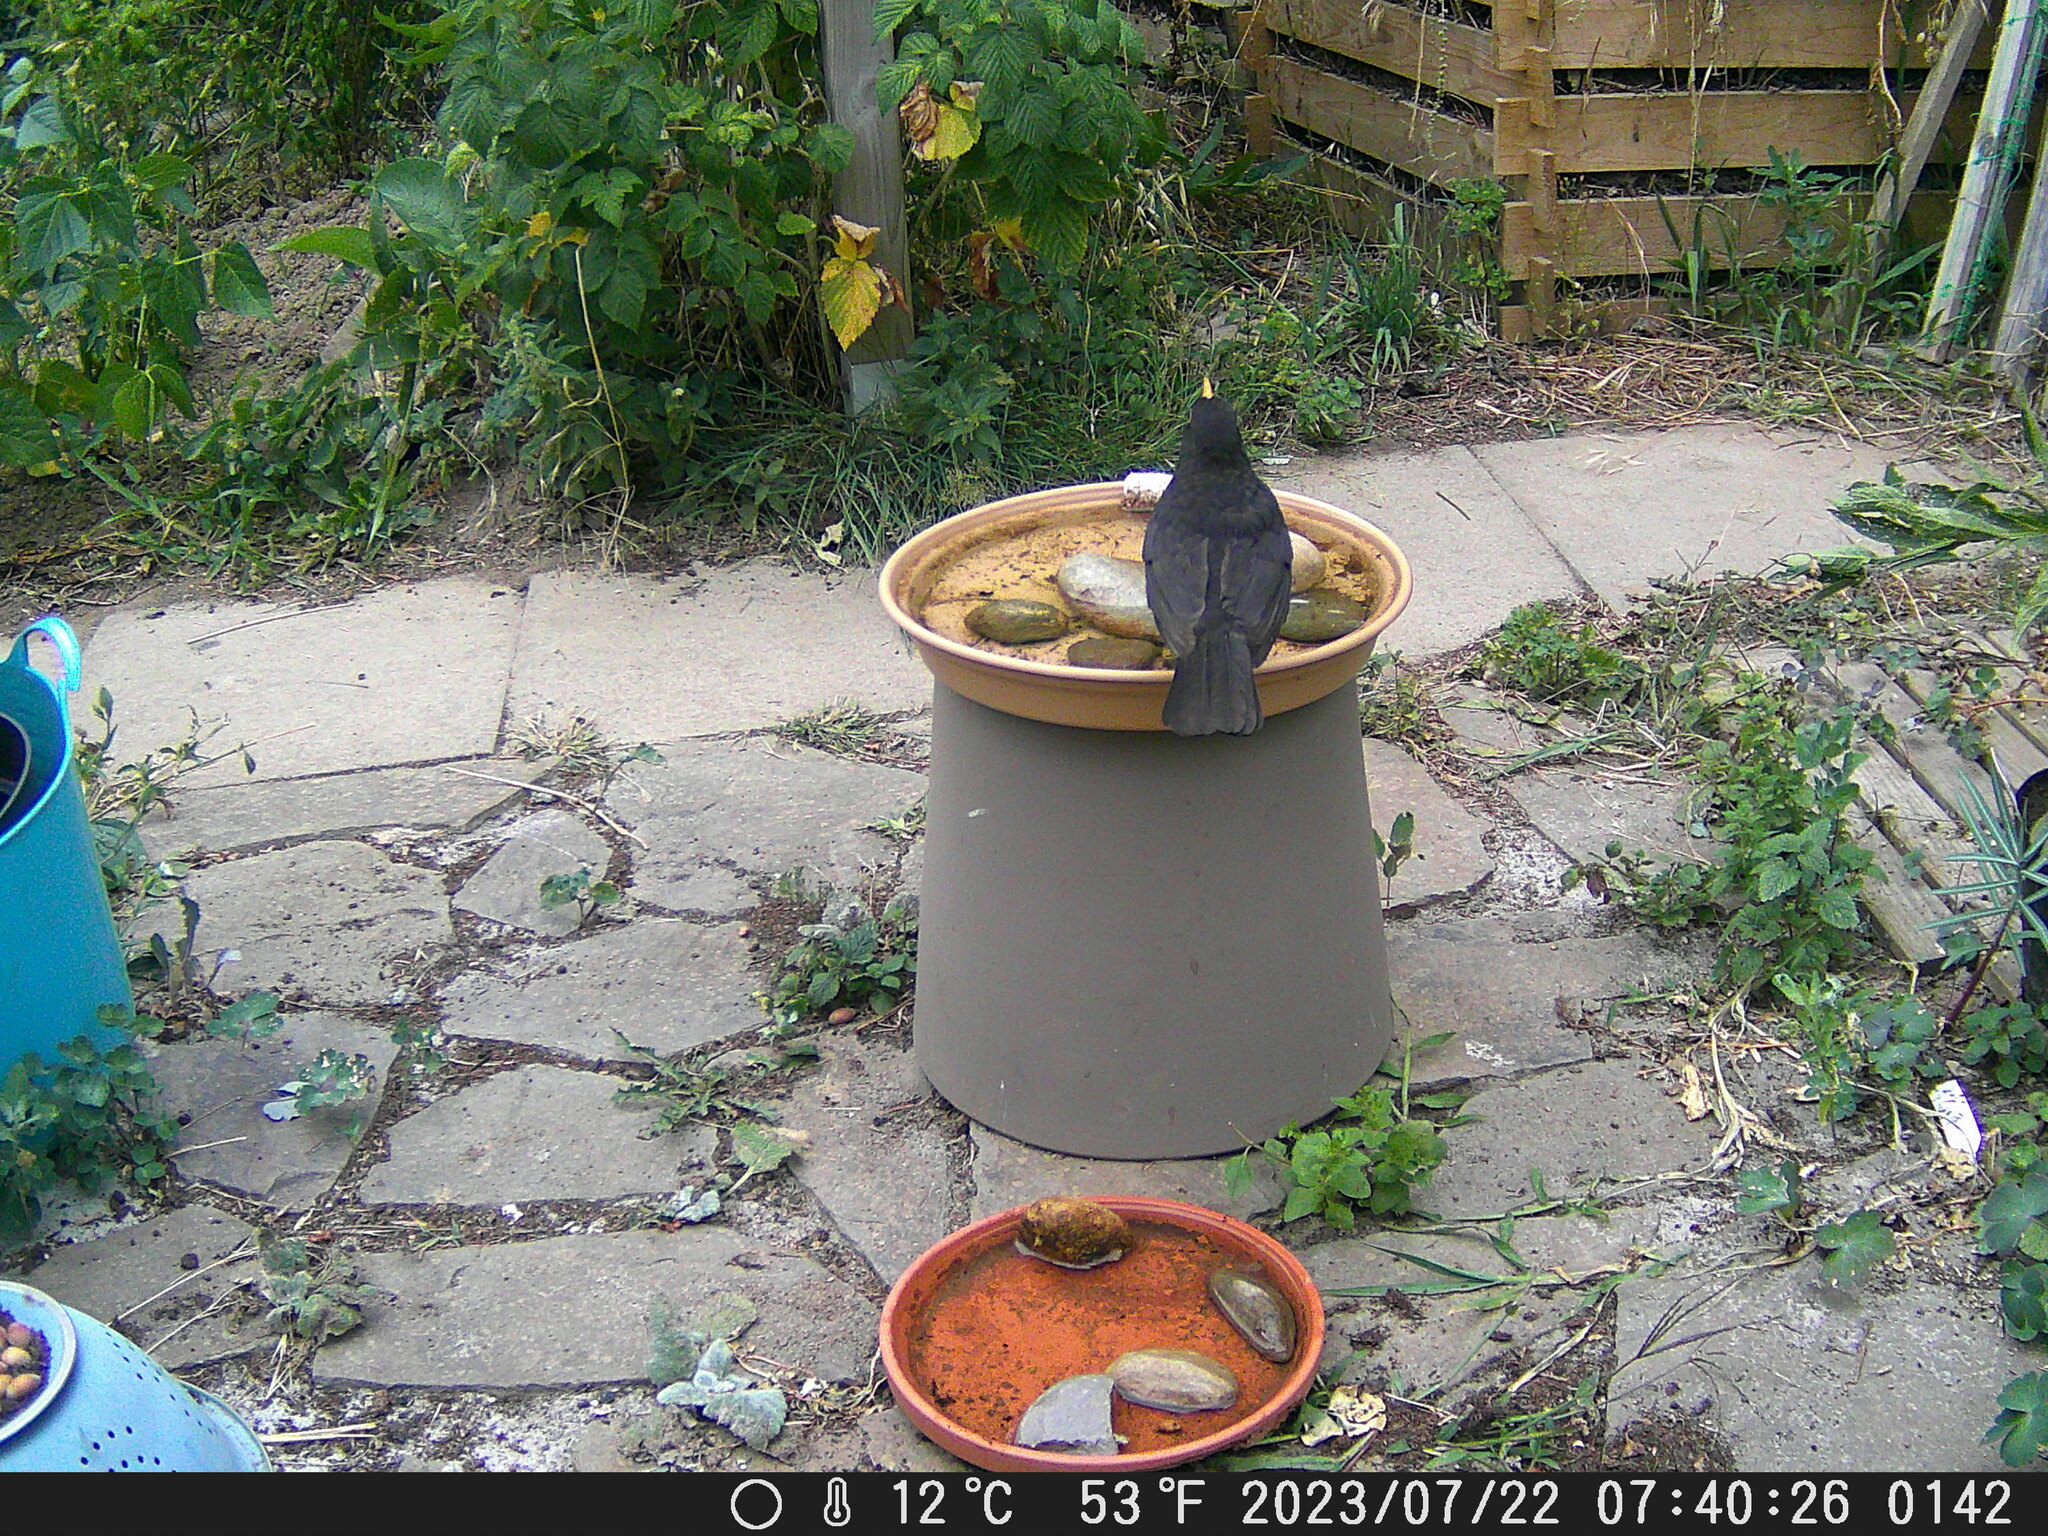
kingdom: Animalia
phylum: Chordata
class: Aves
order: Passeriformes
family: Turdidae
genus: Turdus
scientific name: Turdus merula
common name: Common blackbird
